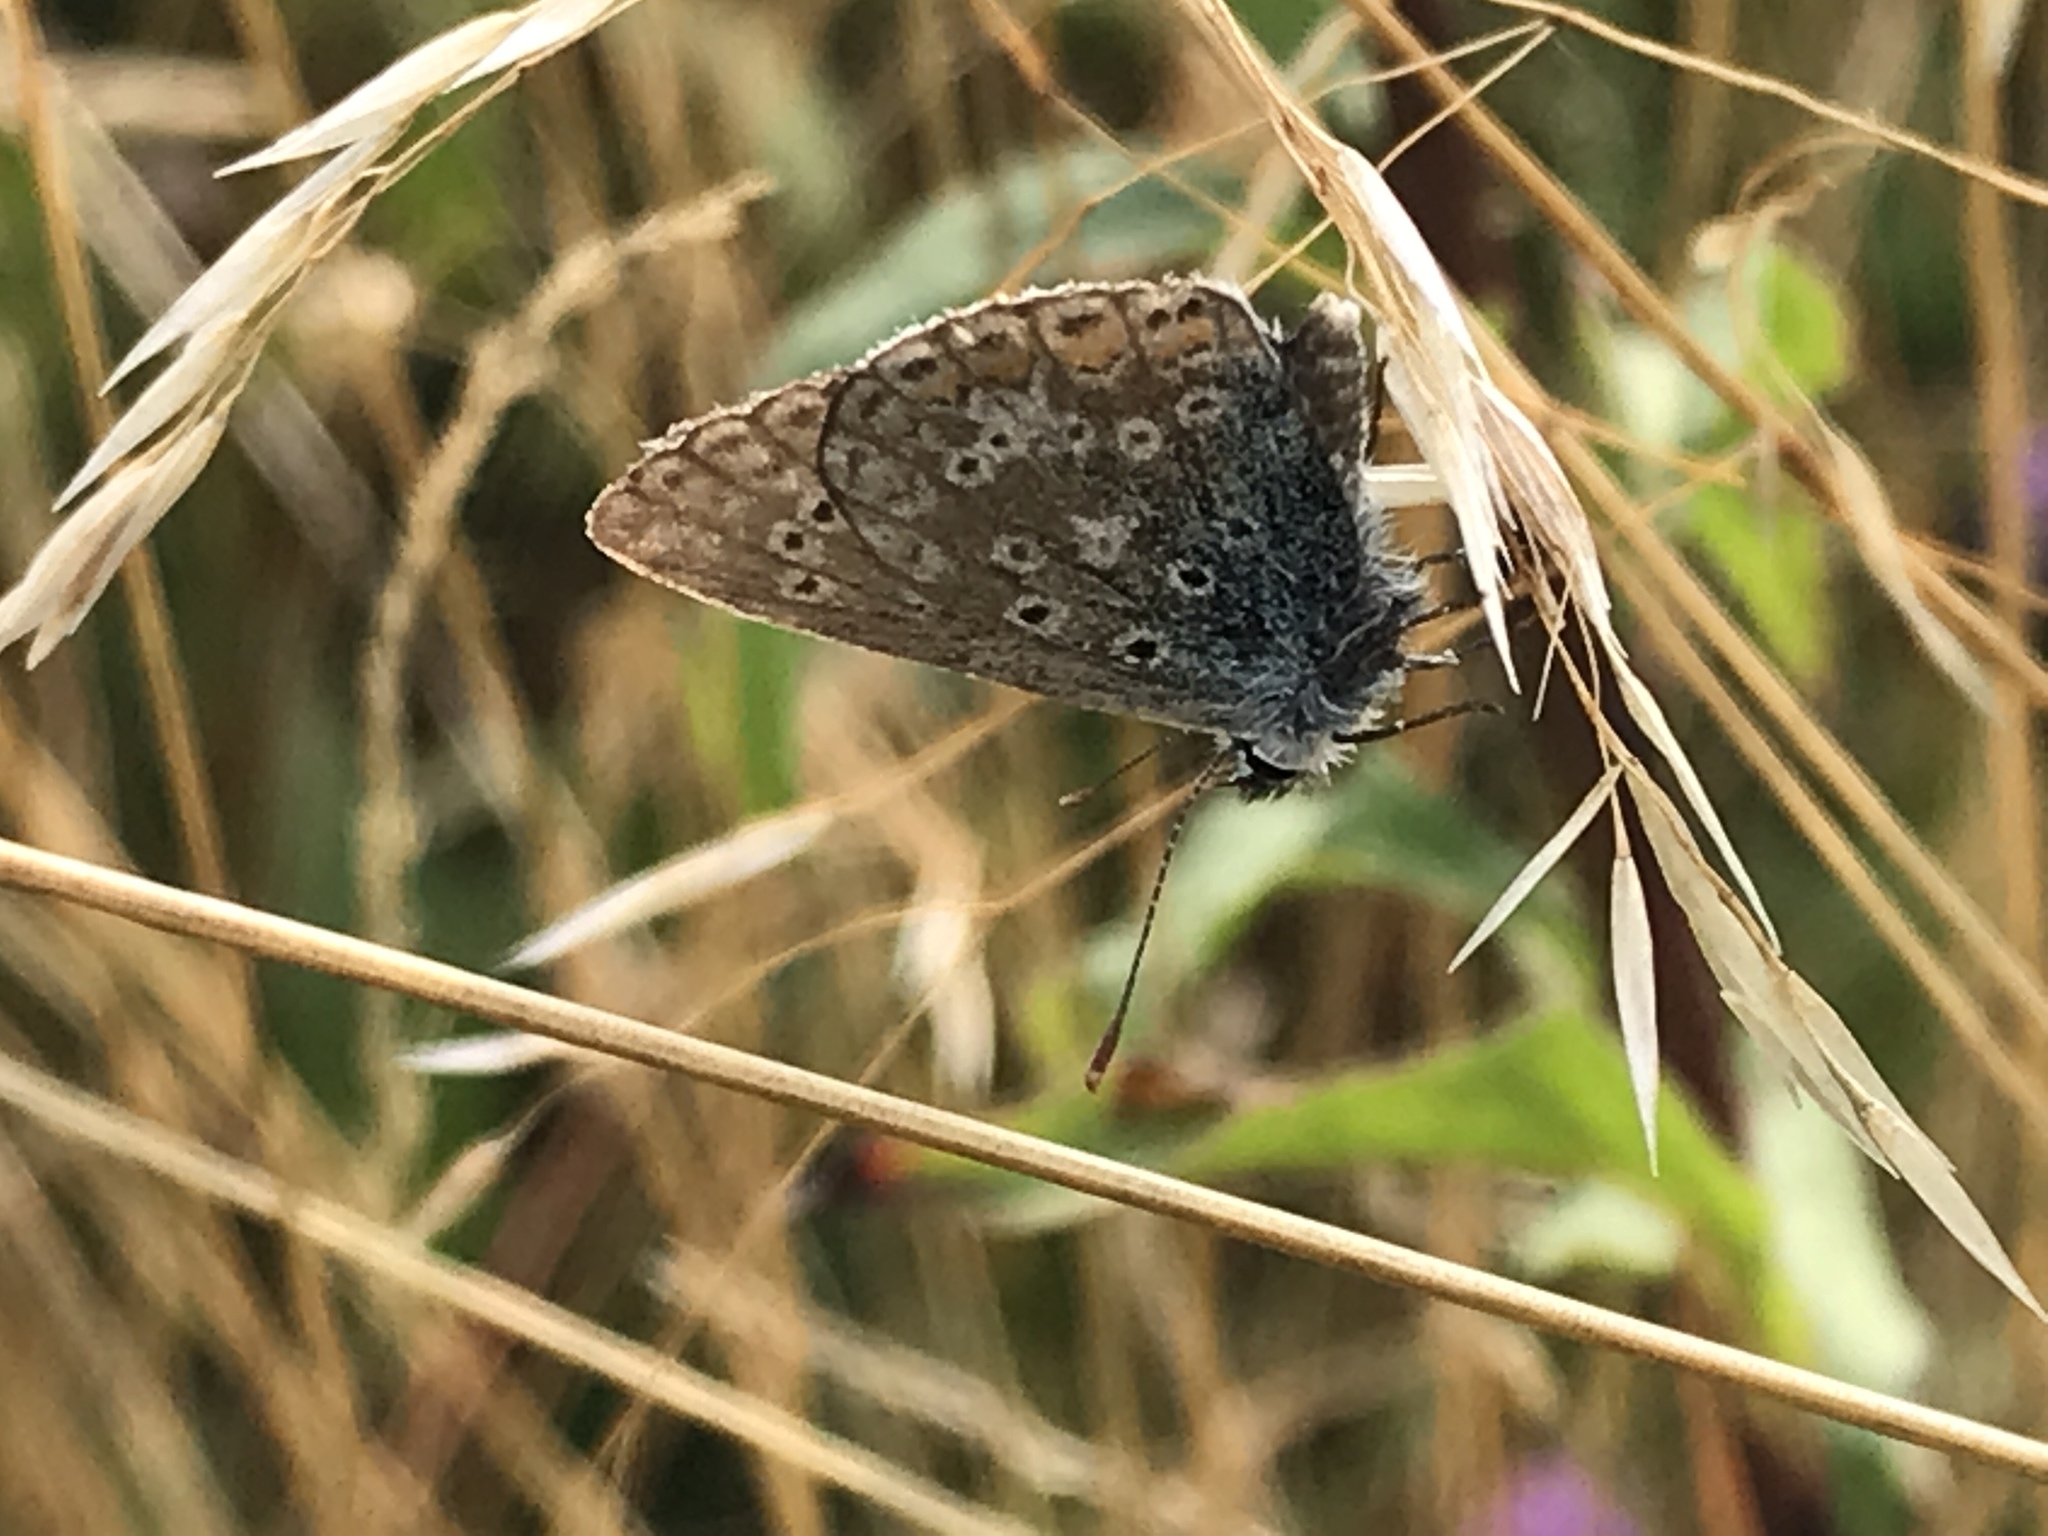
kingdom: Animalia
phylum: Arthropoda
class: Insecta
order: Lepidoptera
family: Lycaenidae
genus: Polyommatus
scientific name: Polyommatus icarus
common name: Common blue
